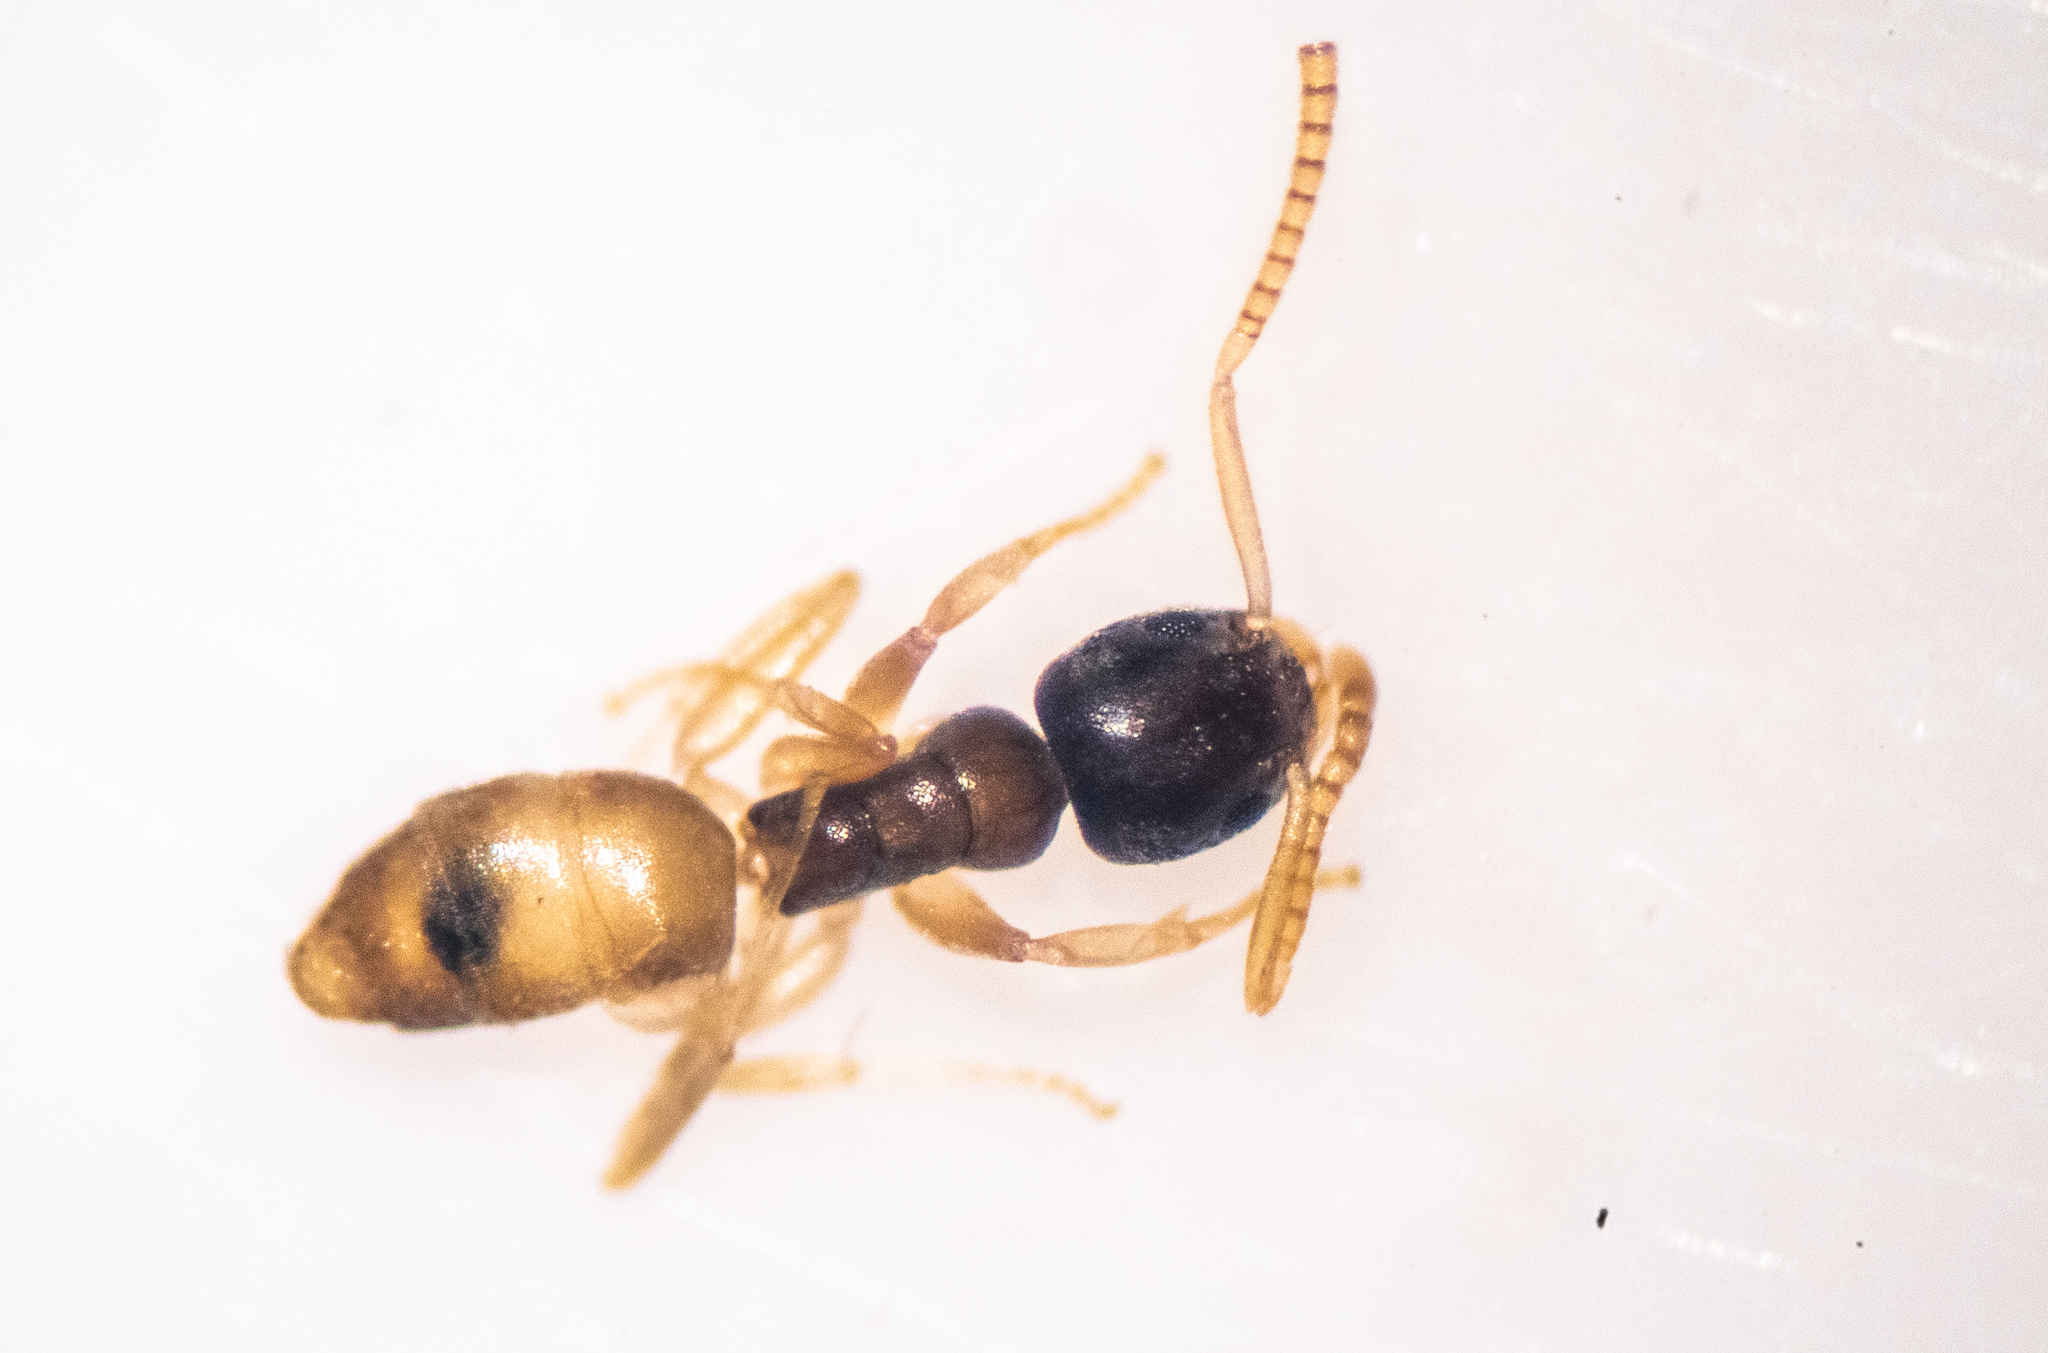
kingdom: Animalia
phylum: Arthropoda
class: Insecta
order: Hymenoptera
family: Formicidae
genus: Tapinoma
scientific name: Tapinoma melanocephalum
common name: Ghost ant
